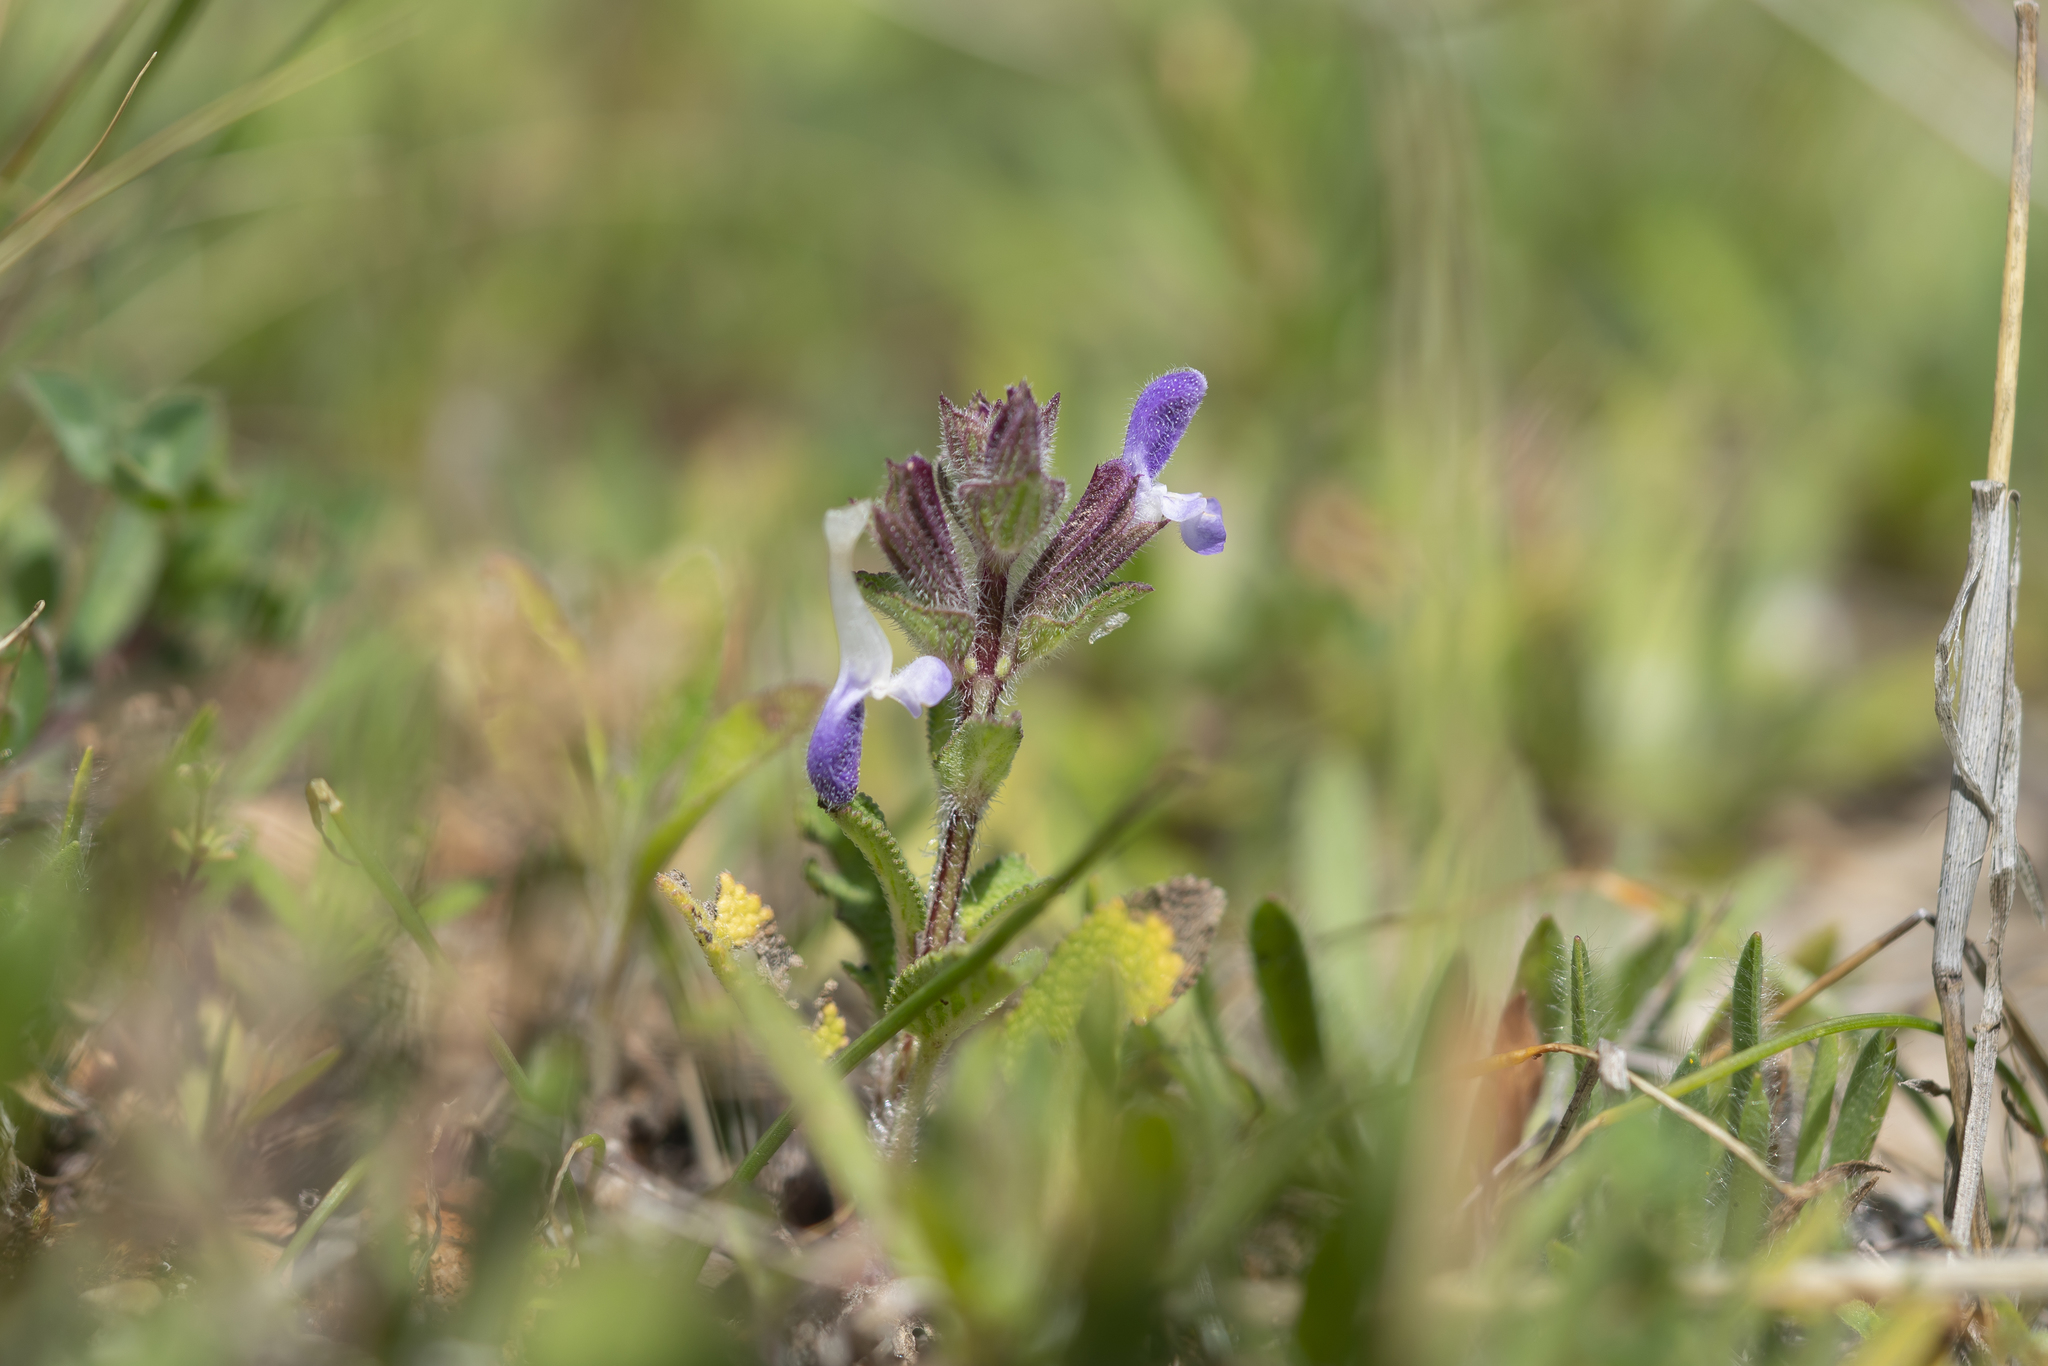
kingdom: Plantae
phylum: Tracheophyta
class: Magnoliopsida
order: Lamiales
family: Lamiaceae
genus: Salvia
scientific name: Salvia viridis
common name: Annual clary
